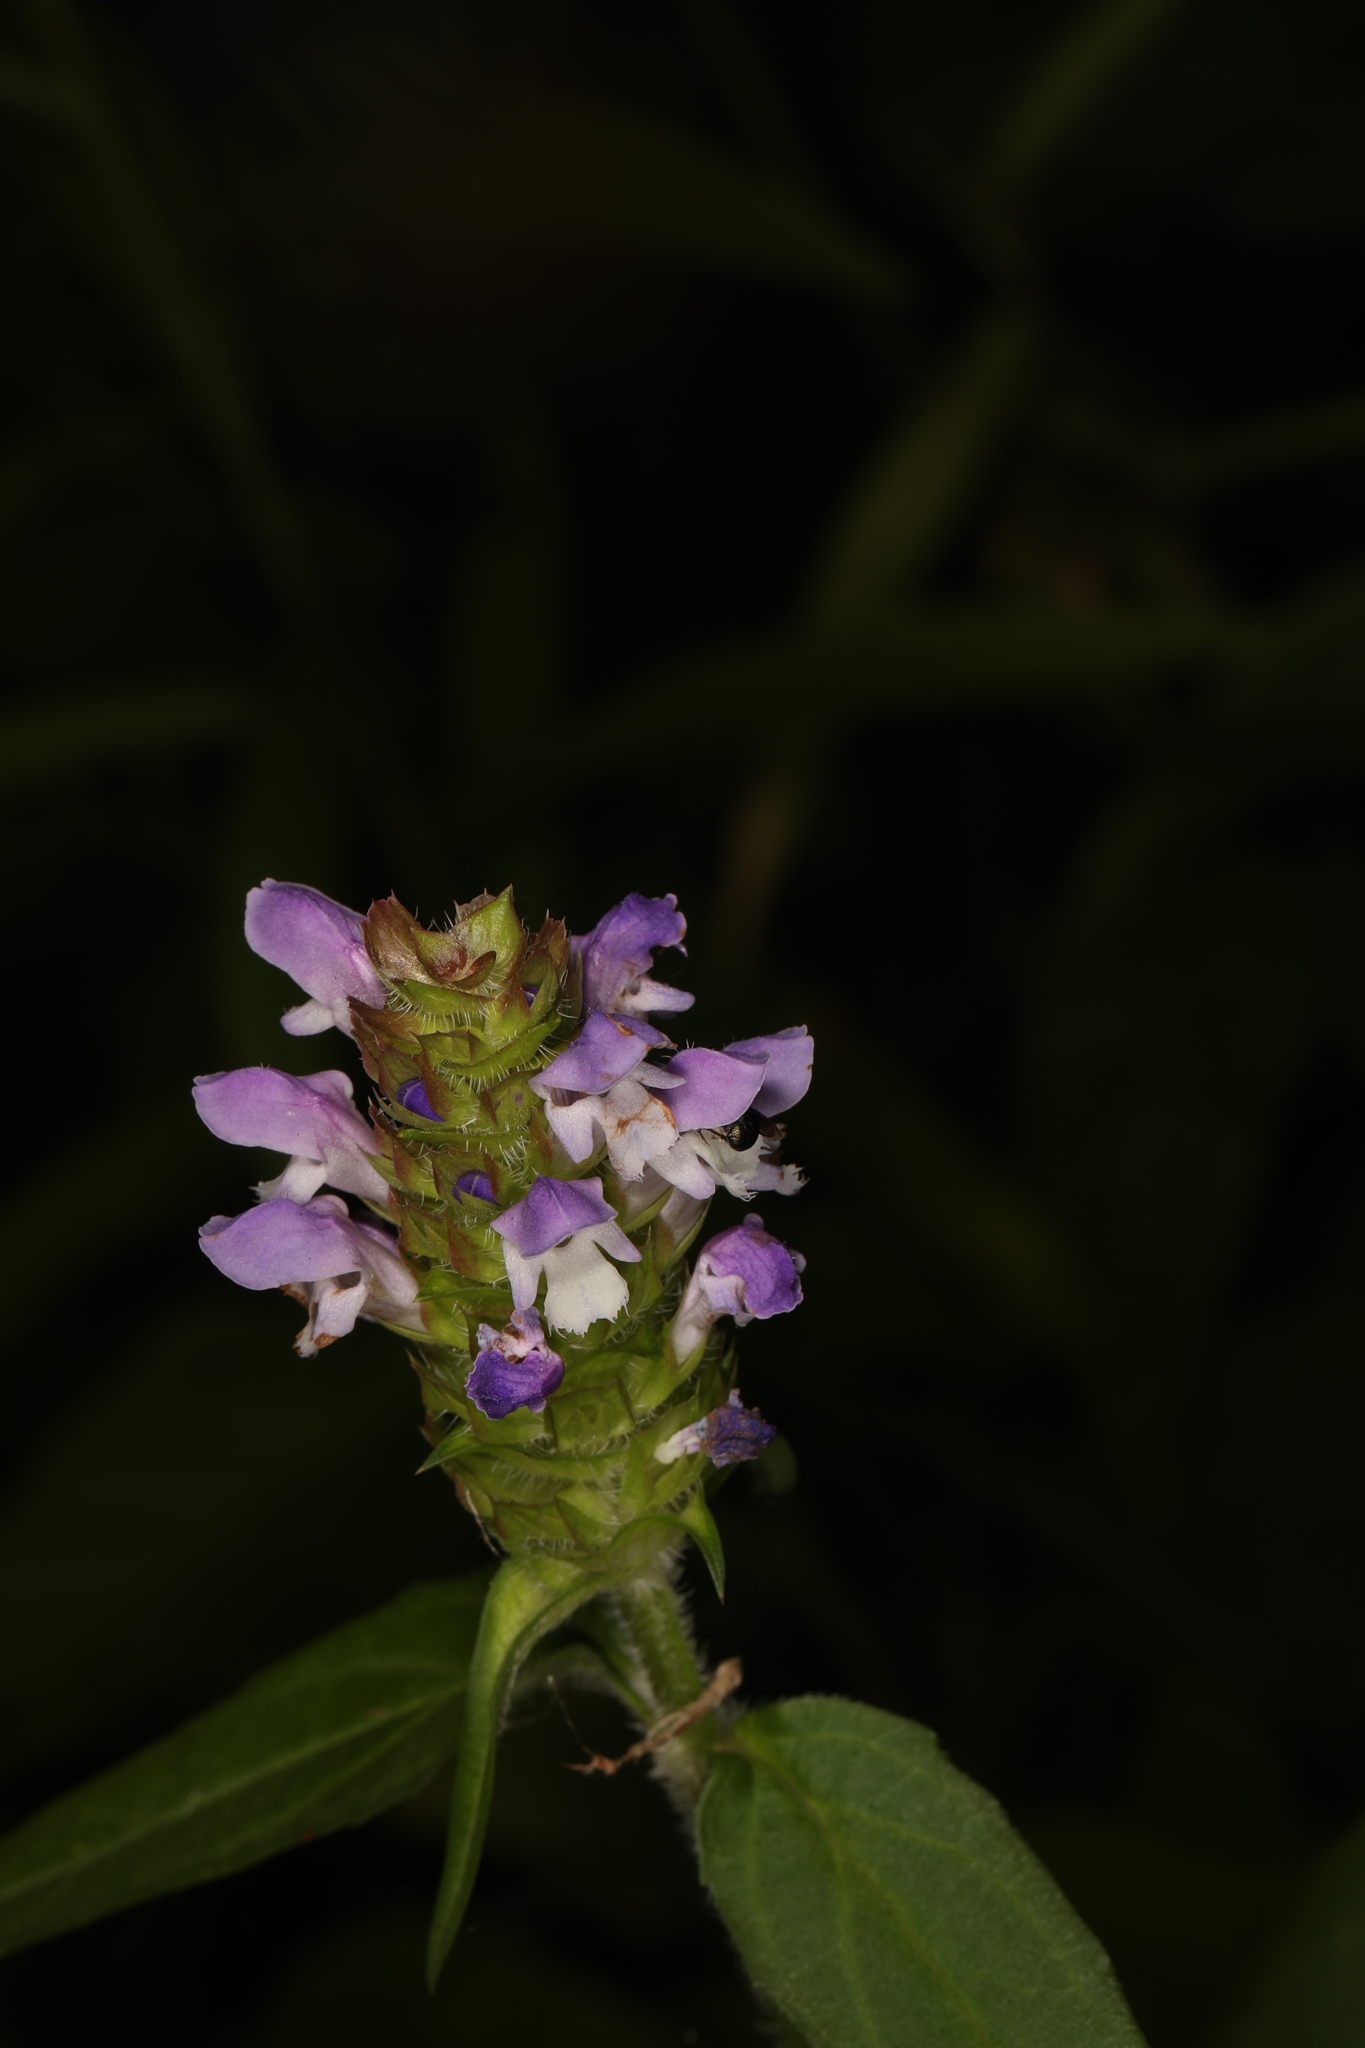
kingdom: Plantae
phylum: Tracheophyta
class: Magnoliopsida
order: Lamiales
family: Lamiaceae
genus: Prunella
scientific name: Prunella vulgaris
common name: Heal-all
